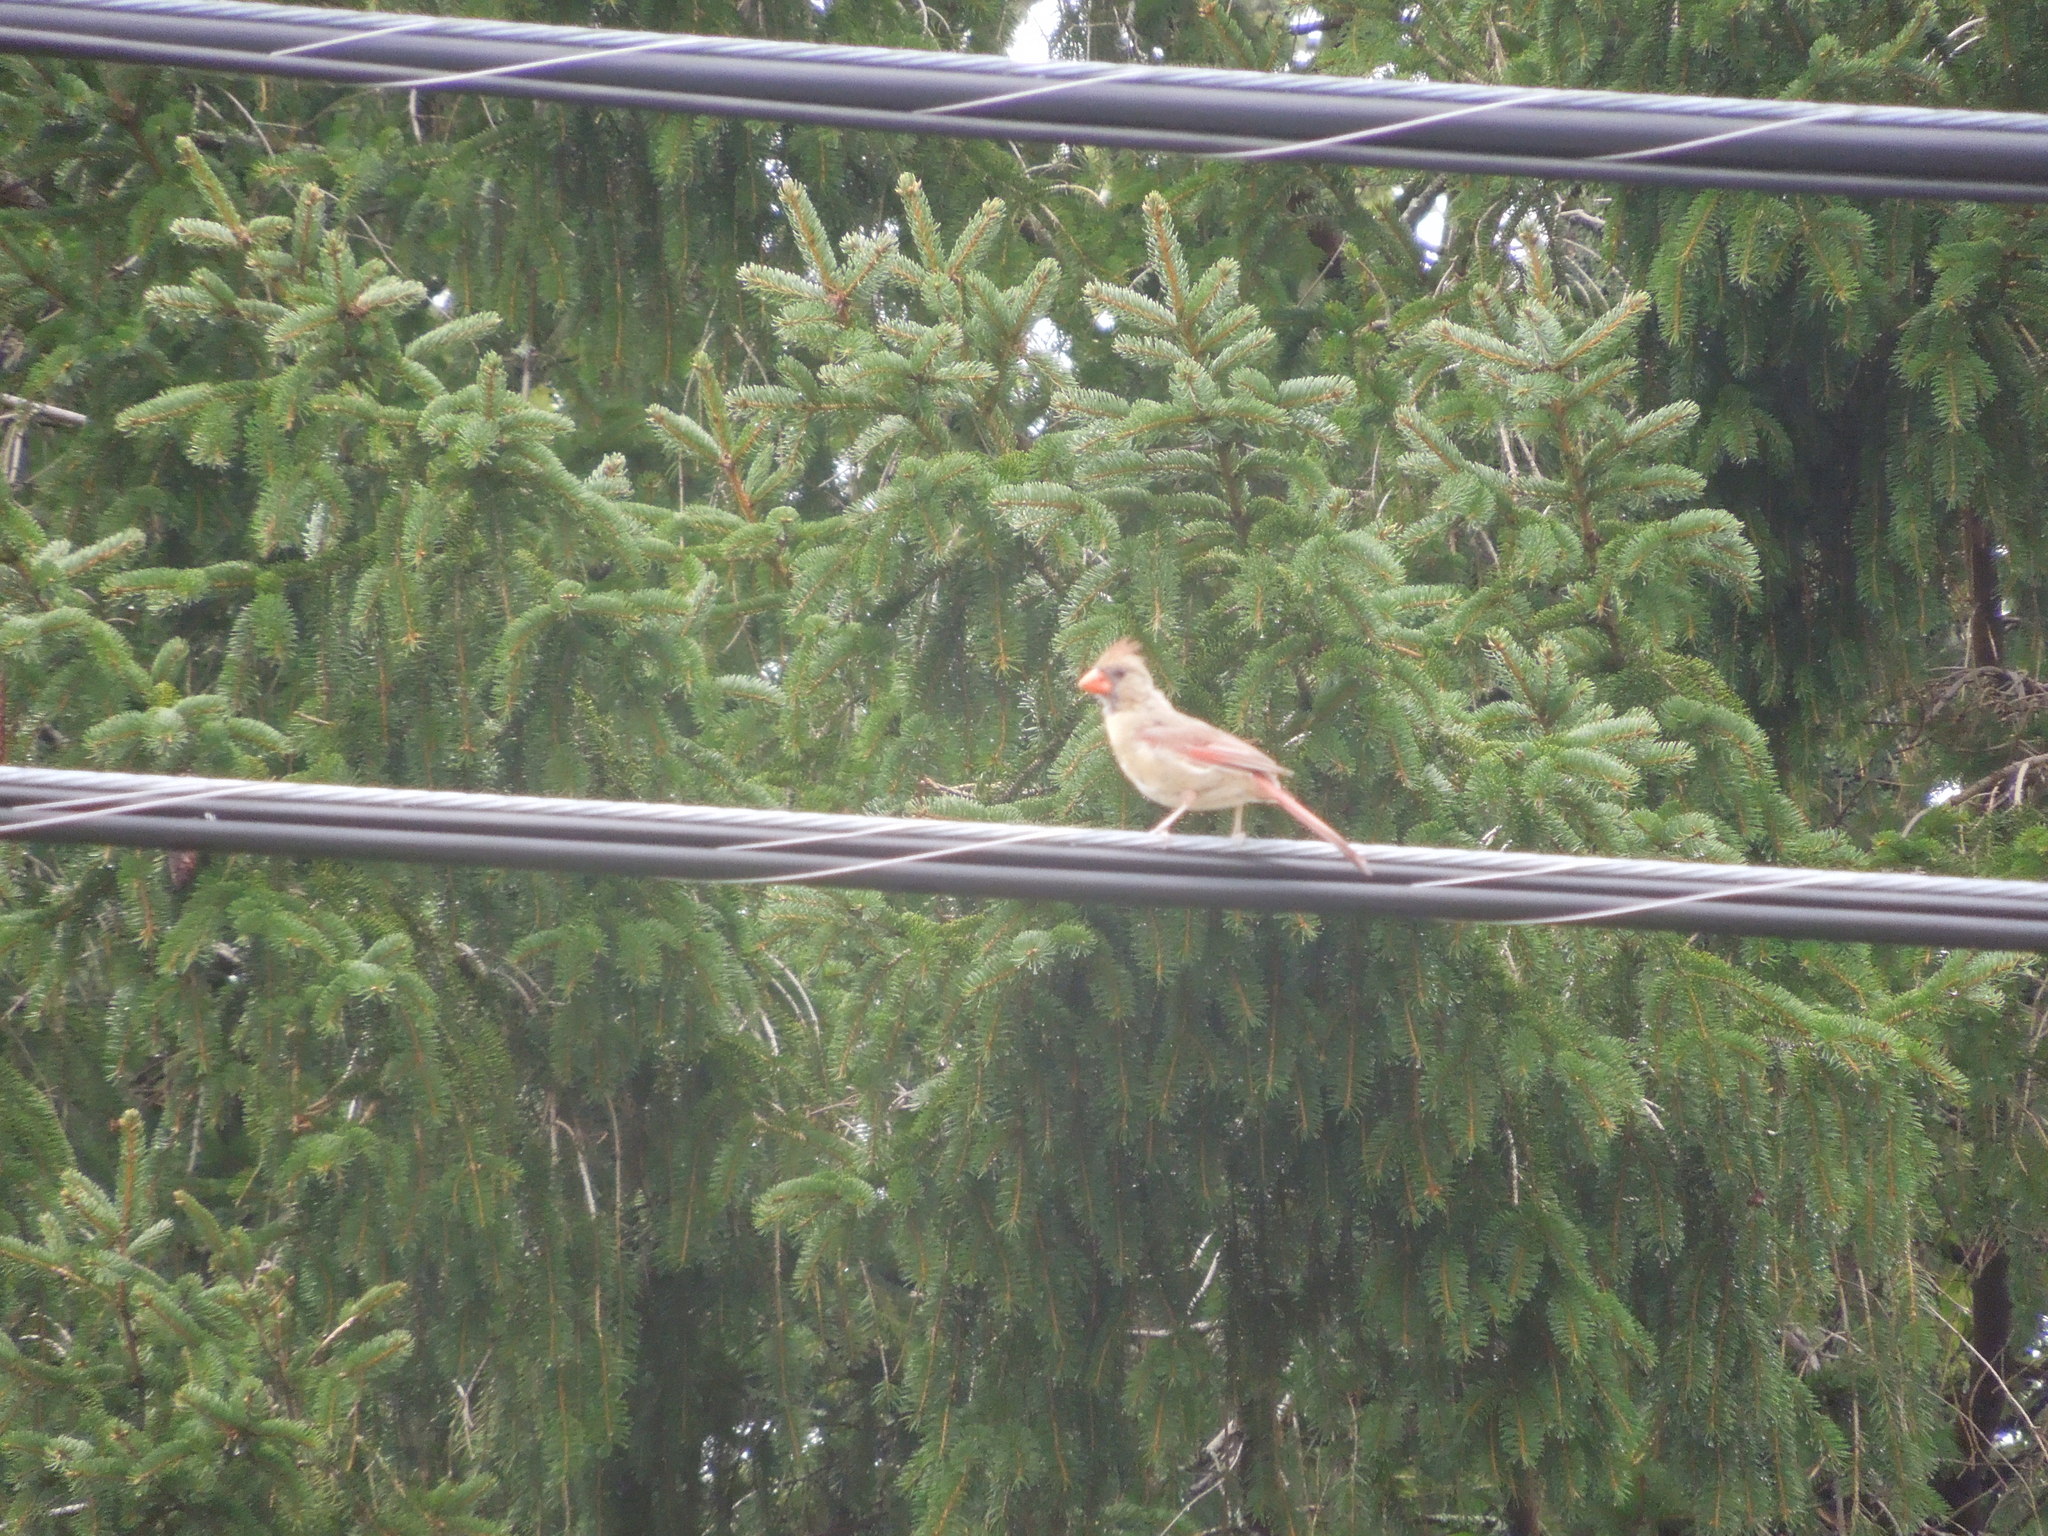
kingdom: Animalia
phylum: Chordata
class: Aves
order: Passeriformes
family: Cardinalidae
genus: Cardinalis
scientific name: Cardinalis cardinalis
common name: Northern cardinal
